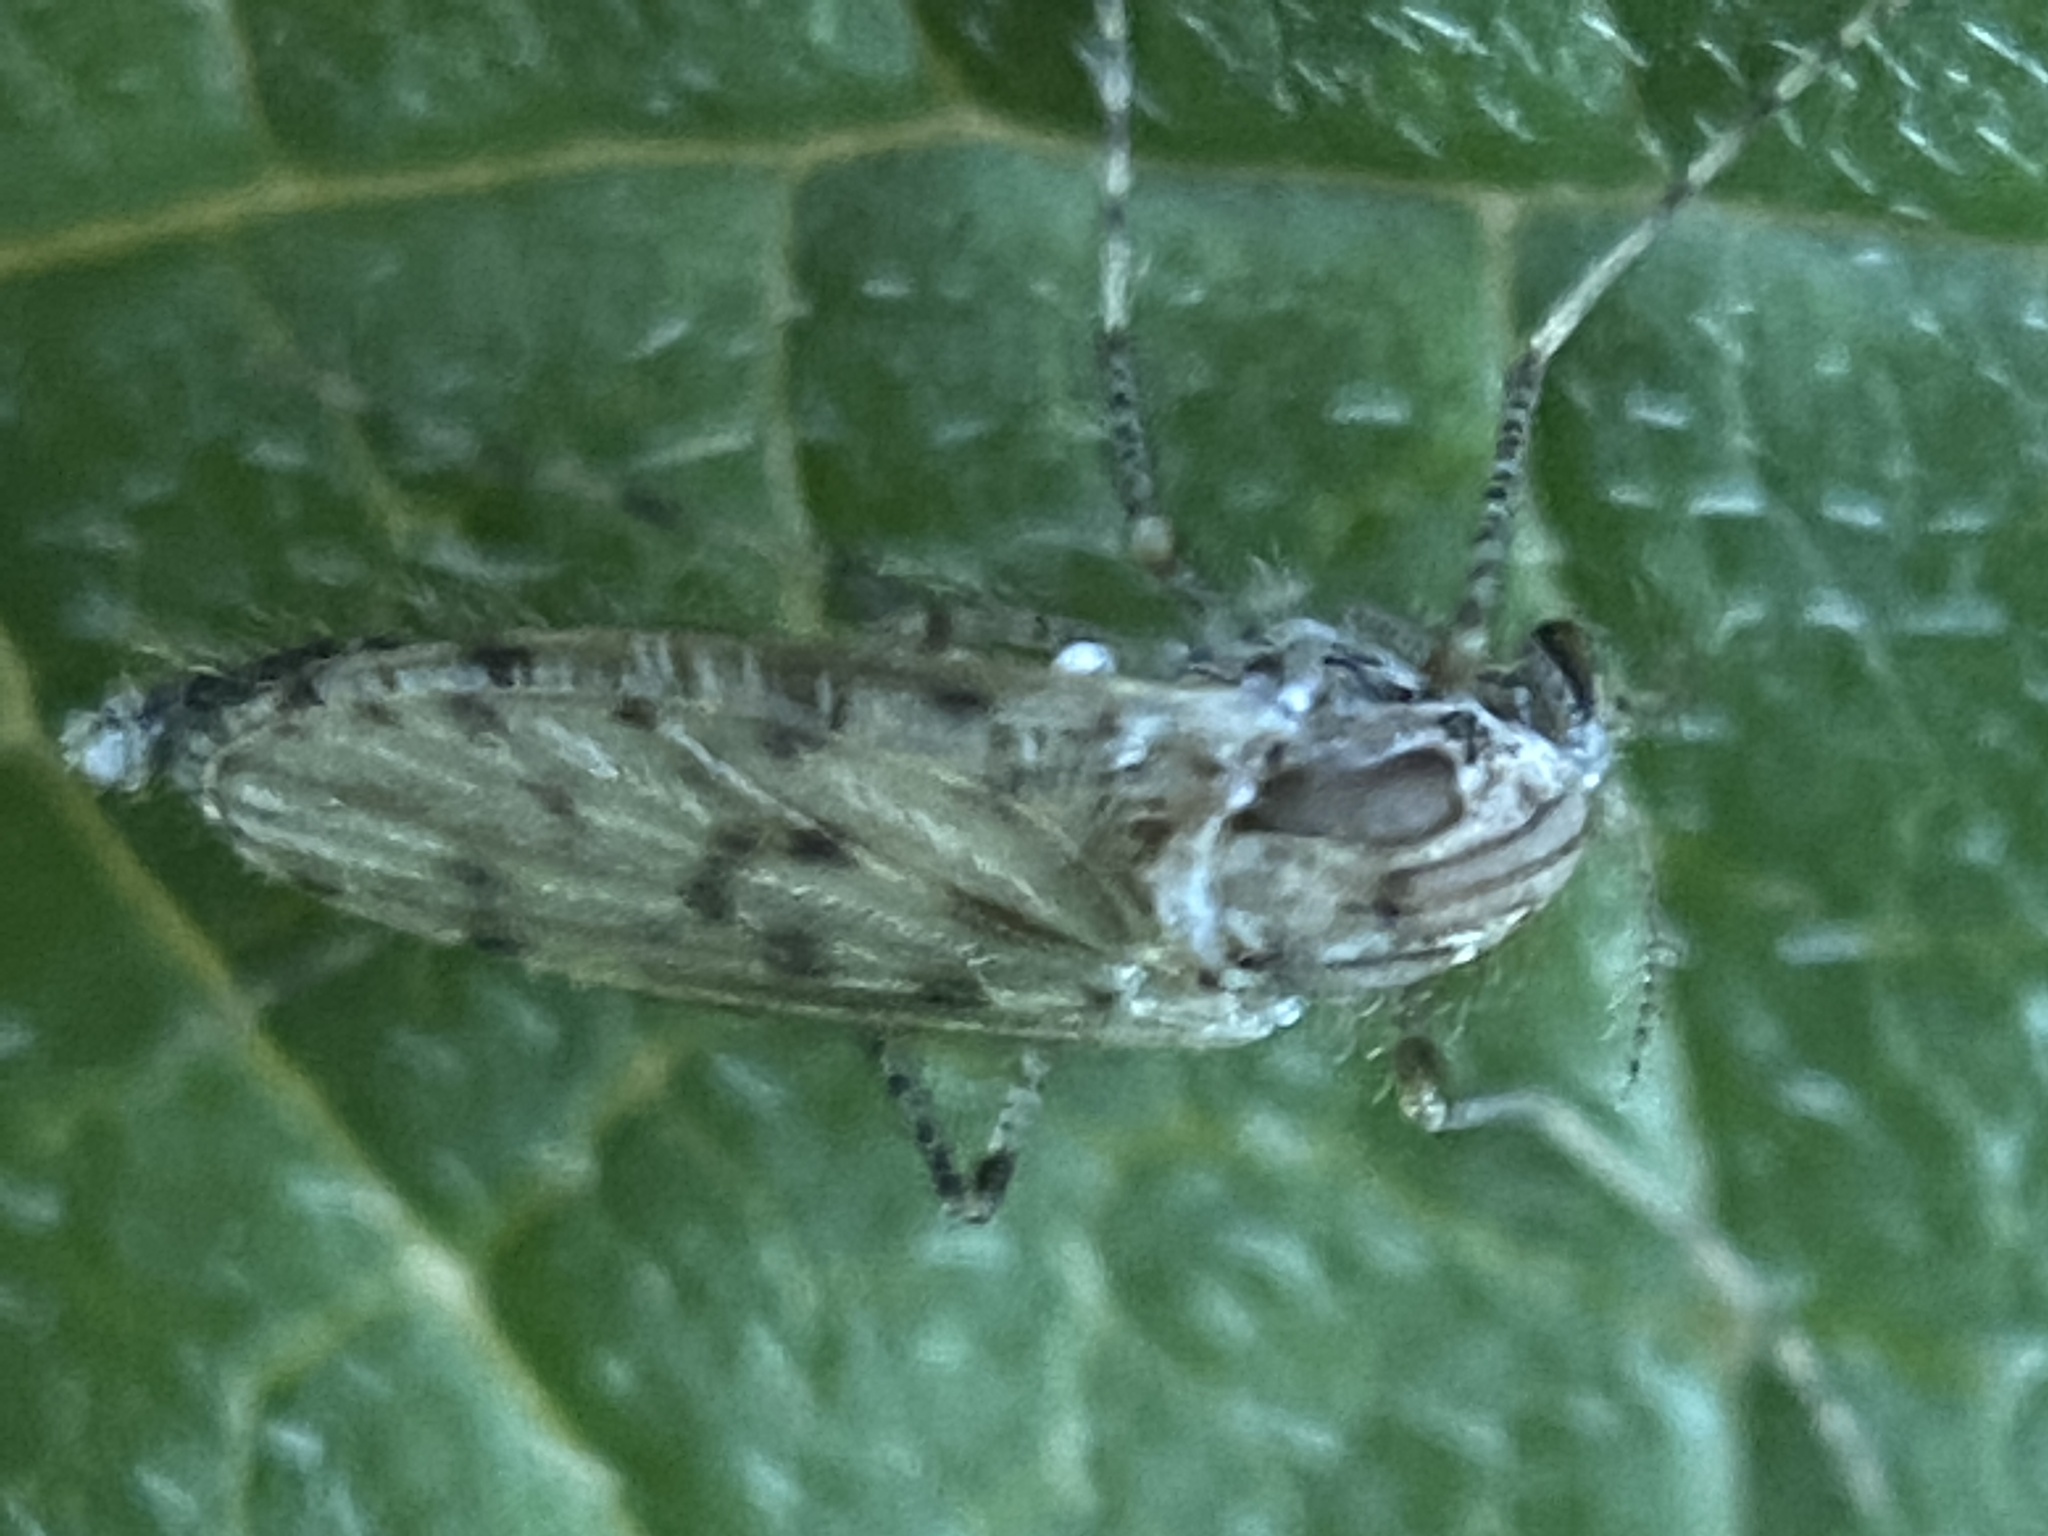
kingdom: Animalia
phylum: Arthropoda
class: Insecta
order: Diptera
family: Chaoboridae
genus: Chaoborus
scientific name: Chaoborus punctipennis
